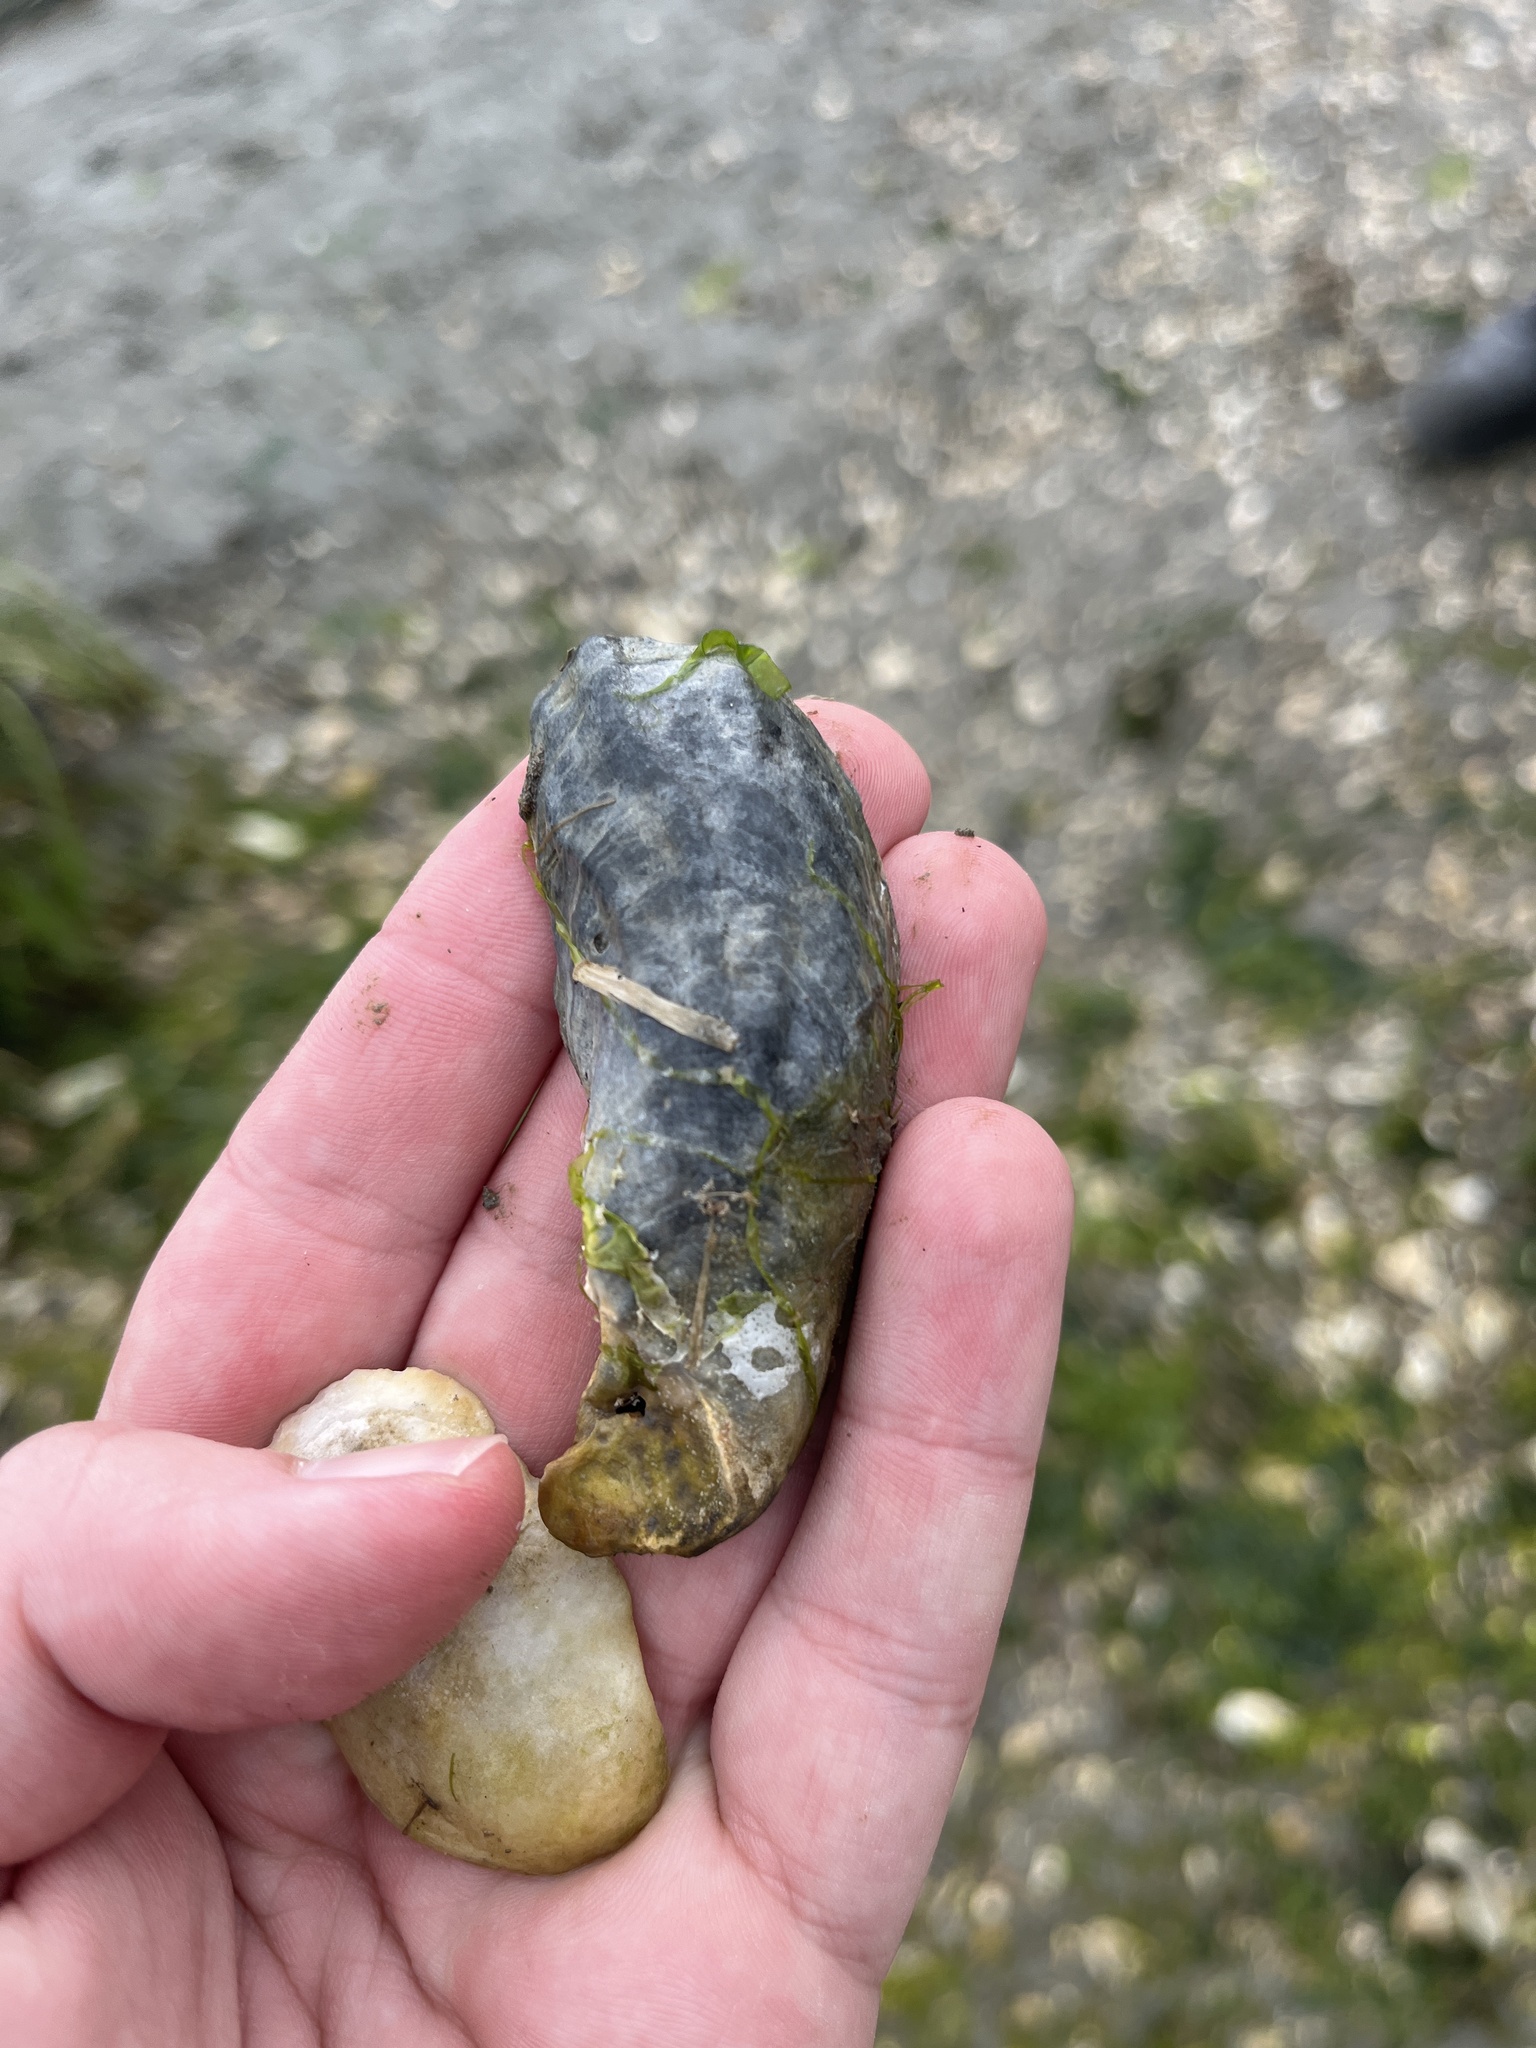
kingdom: Animalia
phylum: Mollusca
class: Bivalvia
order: Ostreida
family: Ostreidae
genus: Crassostrea
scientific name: Crassostrea virginica
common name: American oyster
